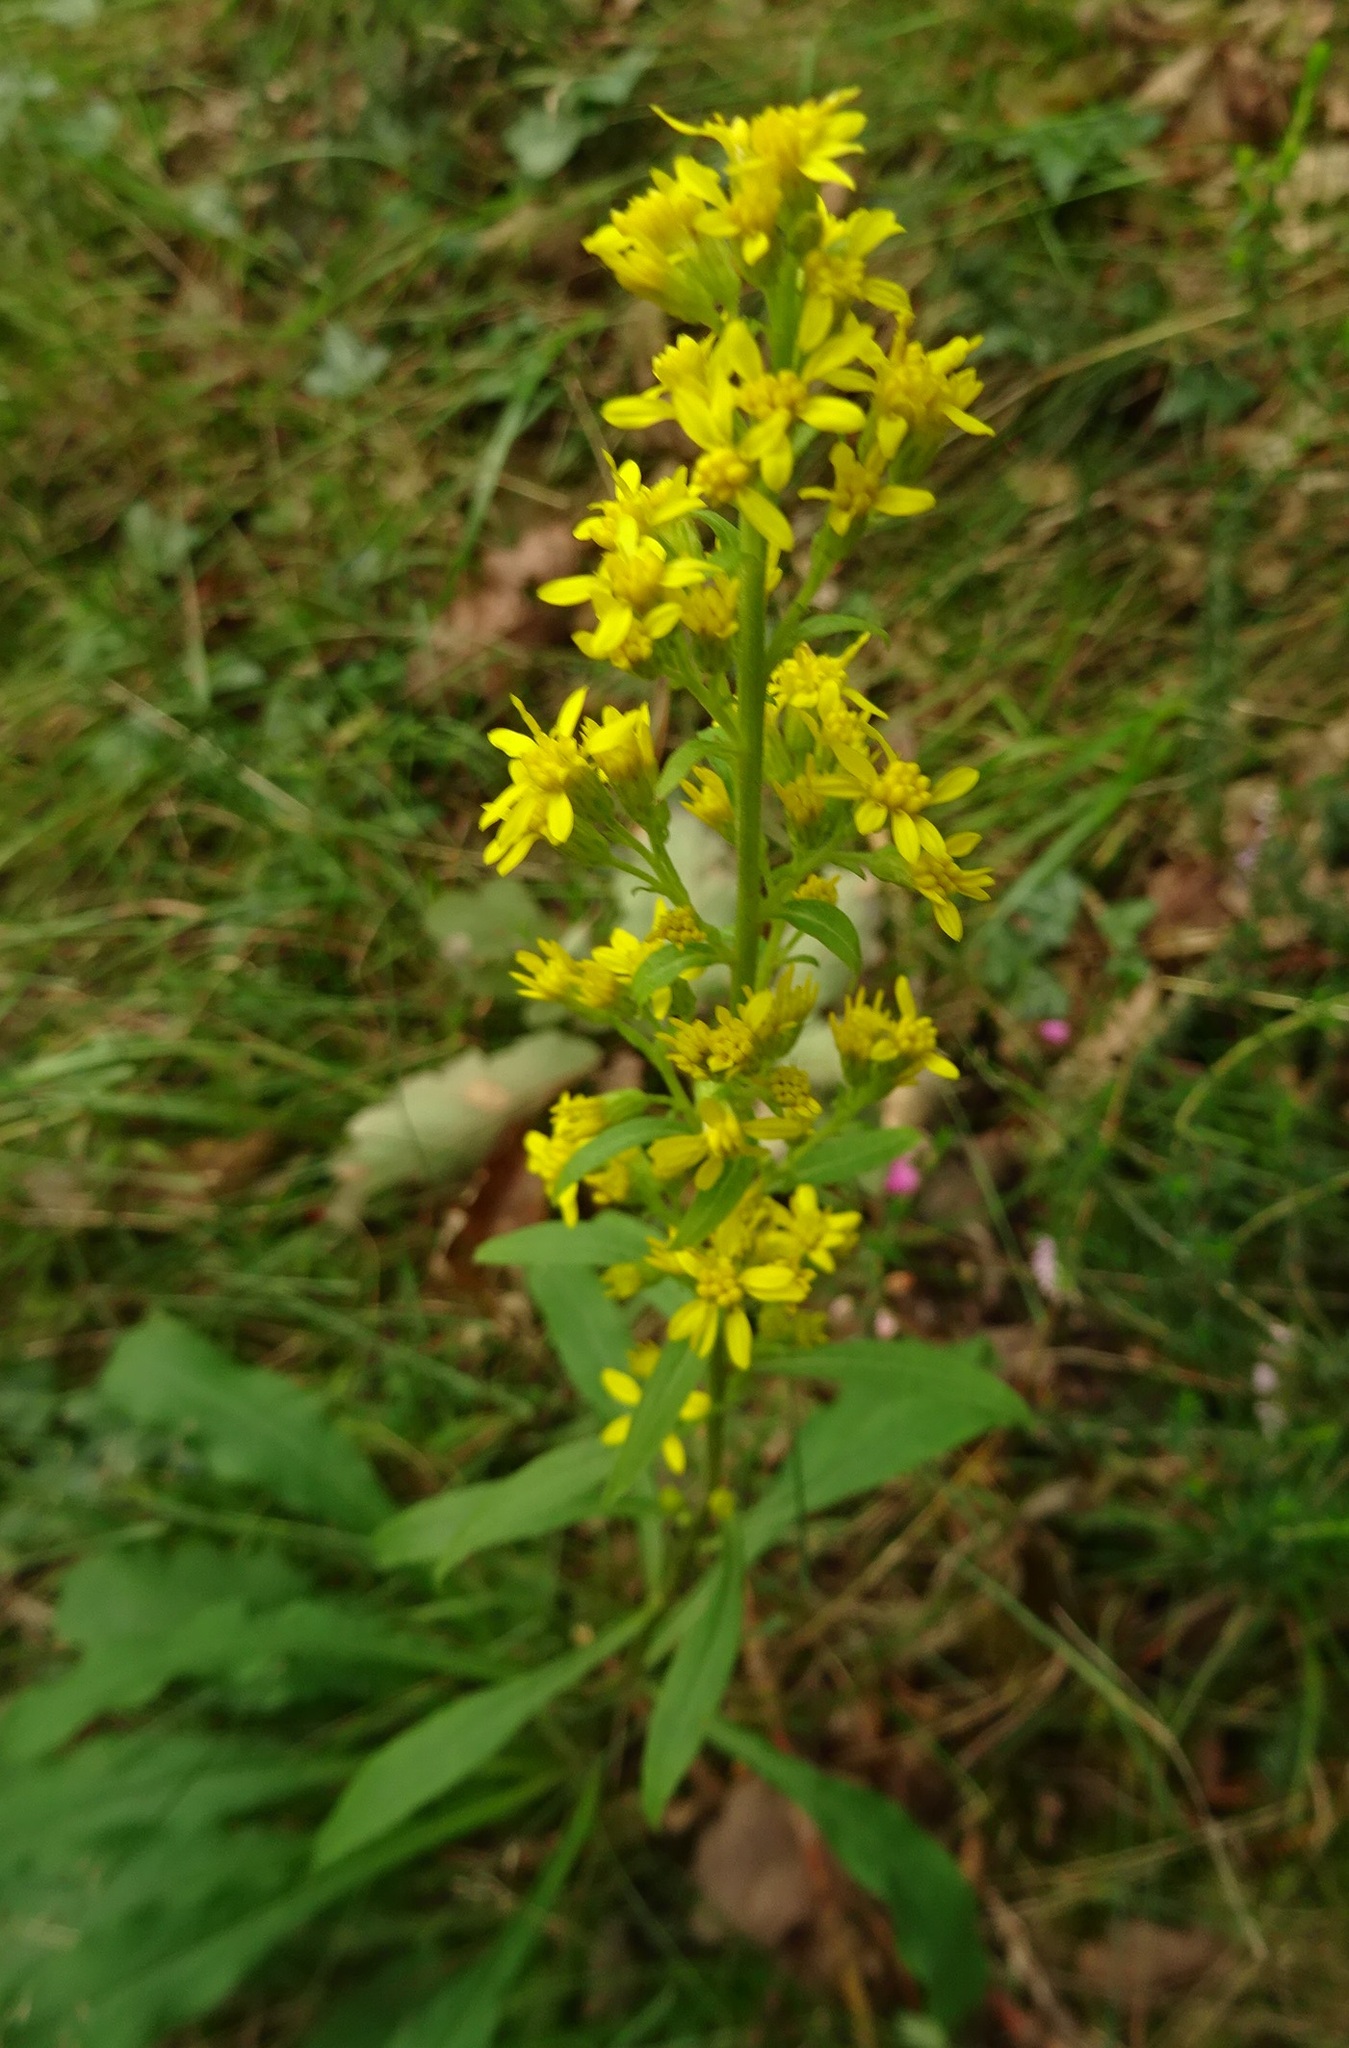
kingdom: Plantae
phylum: Tracheophyta
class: Magnoliopsida
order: Asterales
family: Asteraceae
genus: Solidago
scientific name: Solidago virgaurea
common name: Goldenrod
